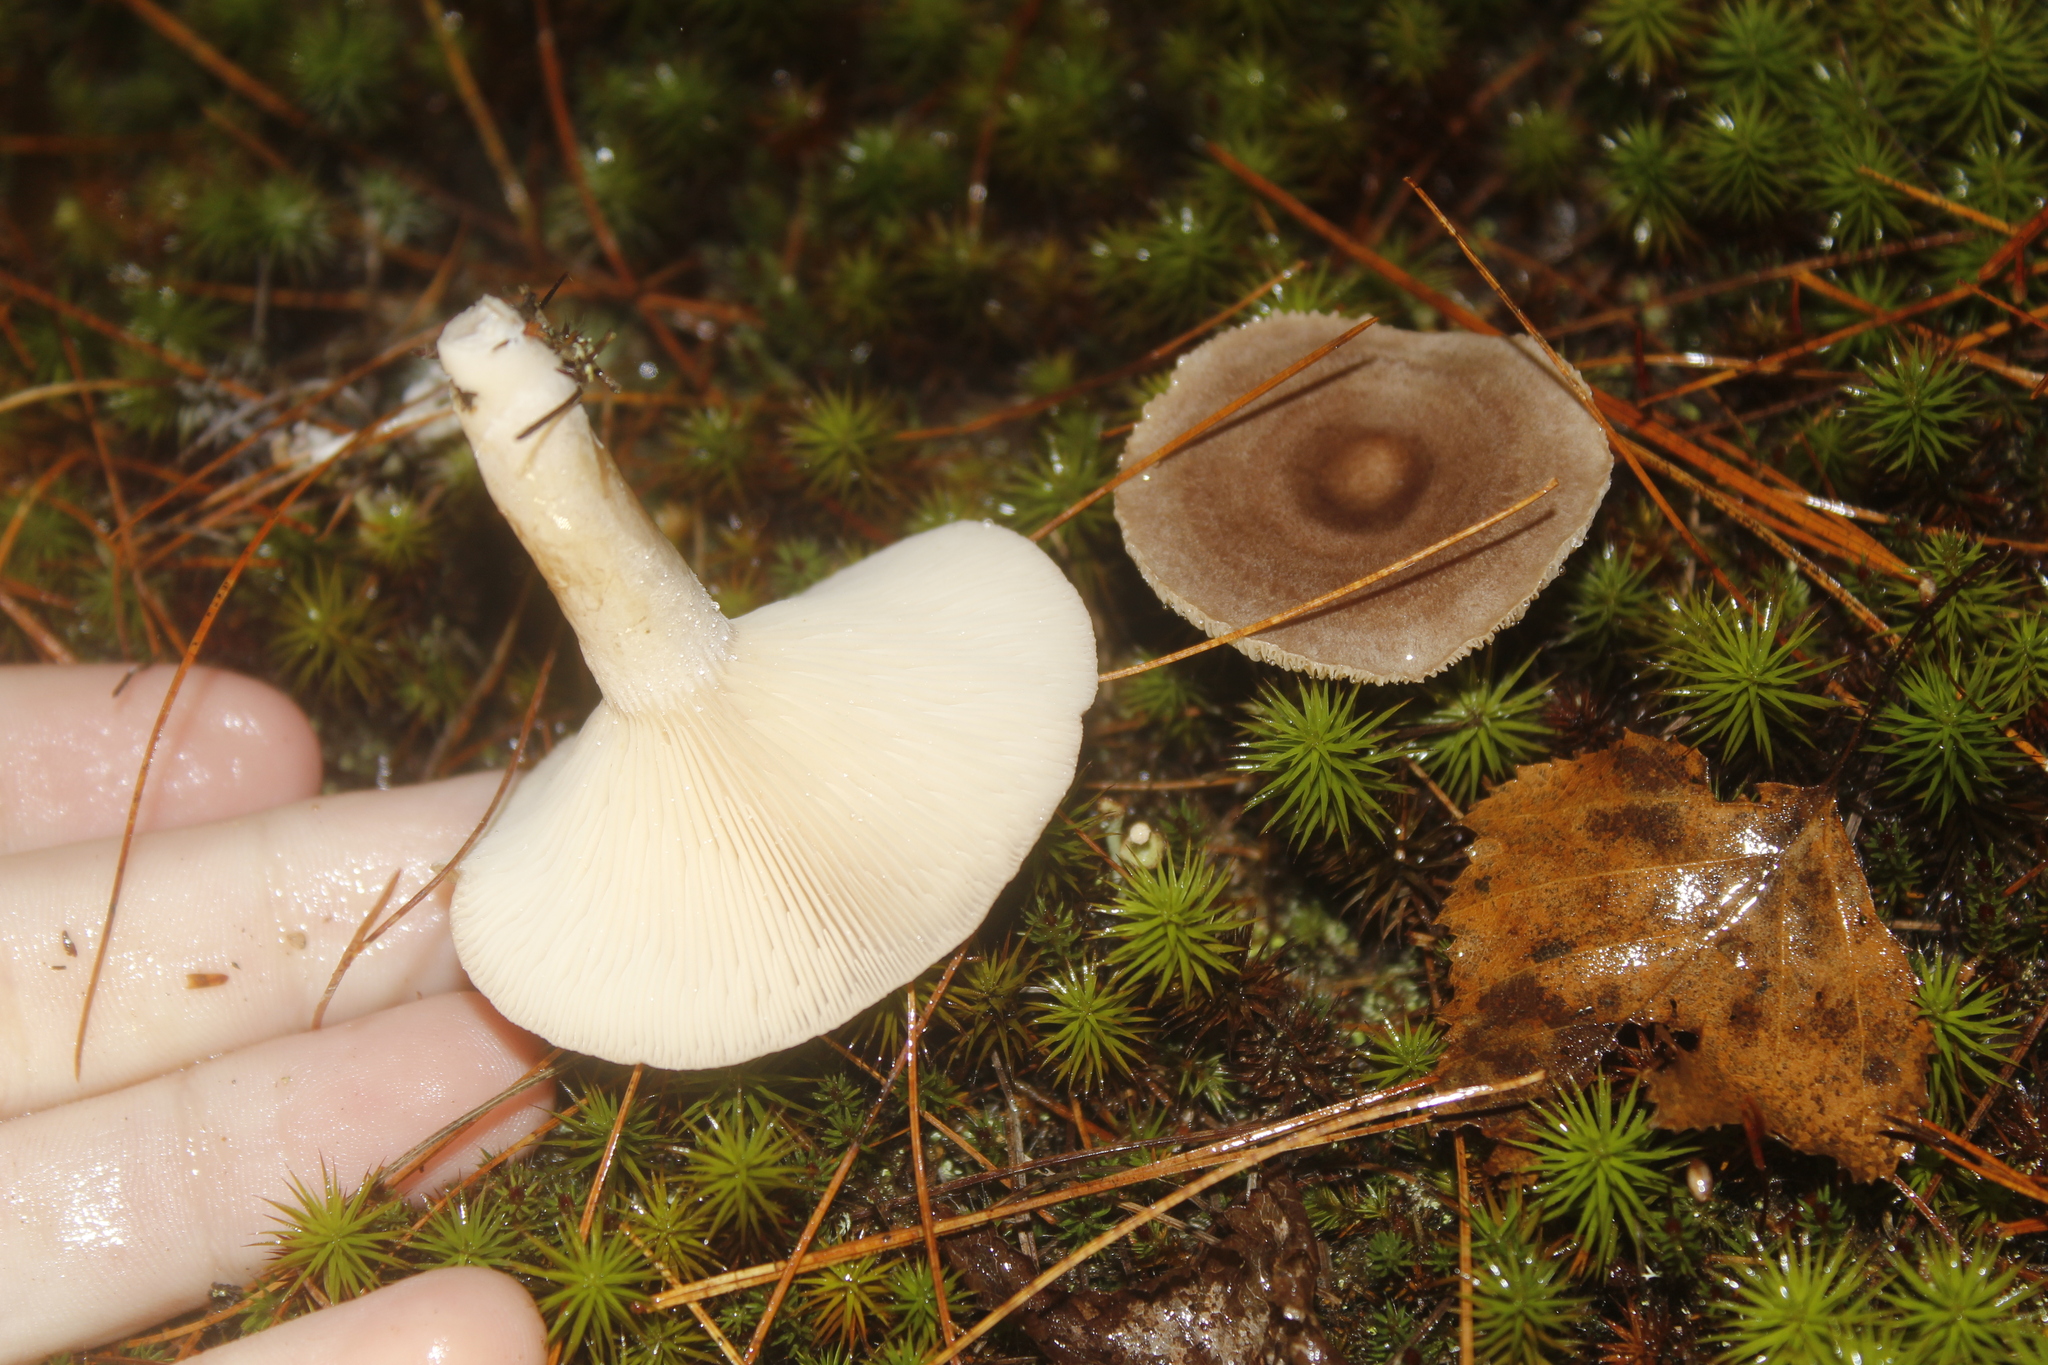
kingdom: Fungi
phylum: Basidiomycota
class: Agaricomycetes
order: Russulales
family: Russulaceae
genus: Lactarius
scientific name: Lactarius mammosus
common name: Pap milkcap
